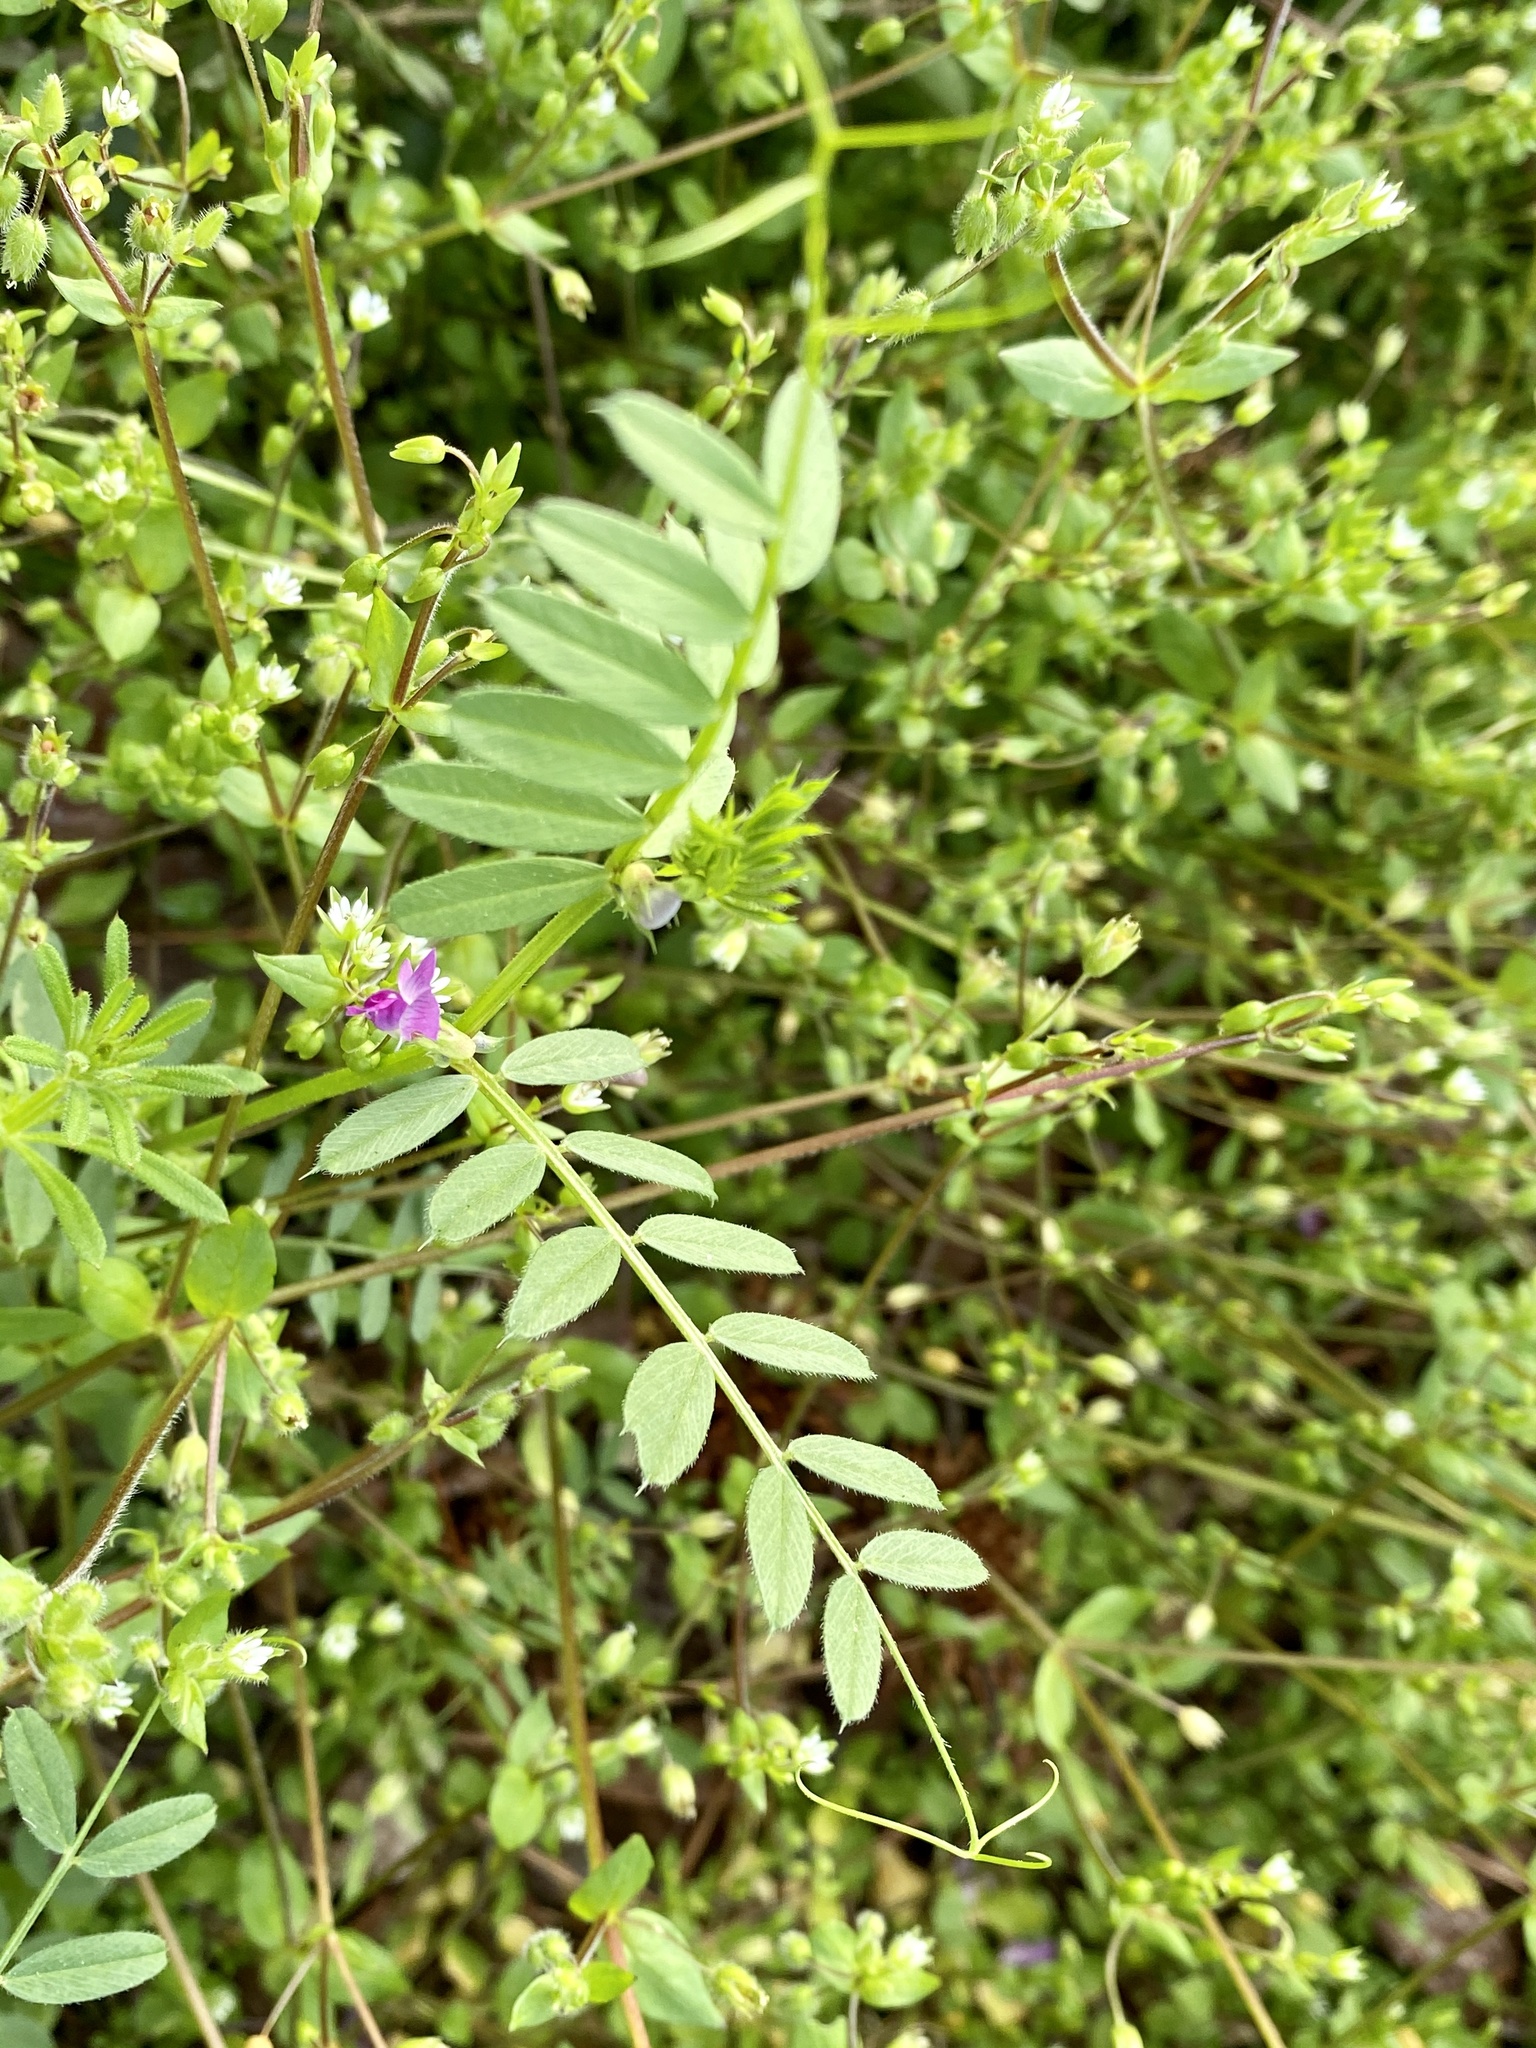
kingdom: Plantae
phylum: Tracheophyta
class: Magnoliopsida
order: Fabales
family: Fabaceae
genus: Vicia
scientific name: Vicia sativa
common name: Garden vetch
